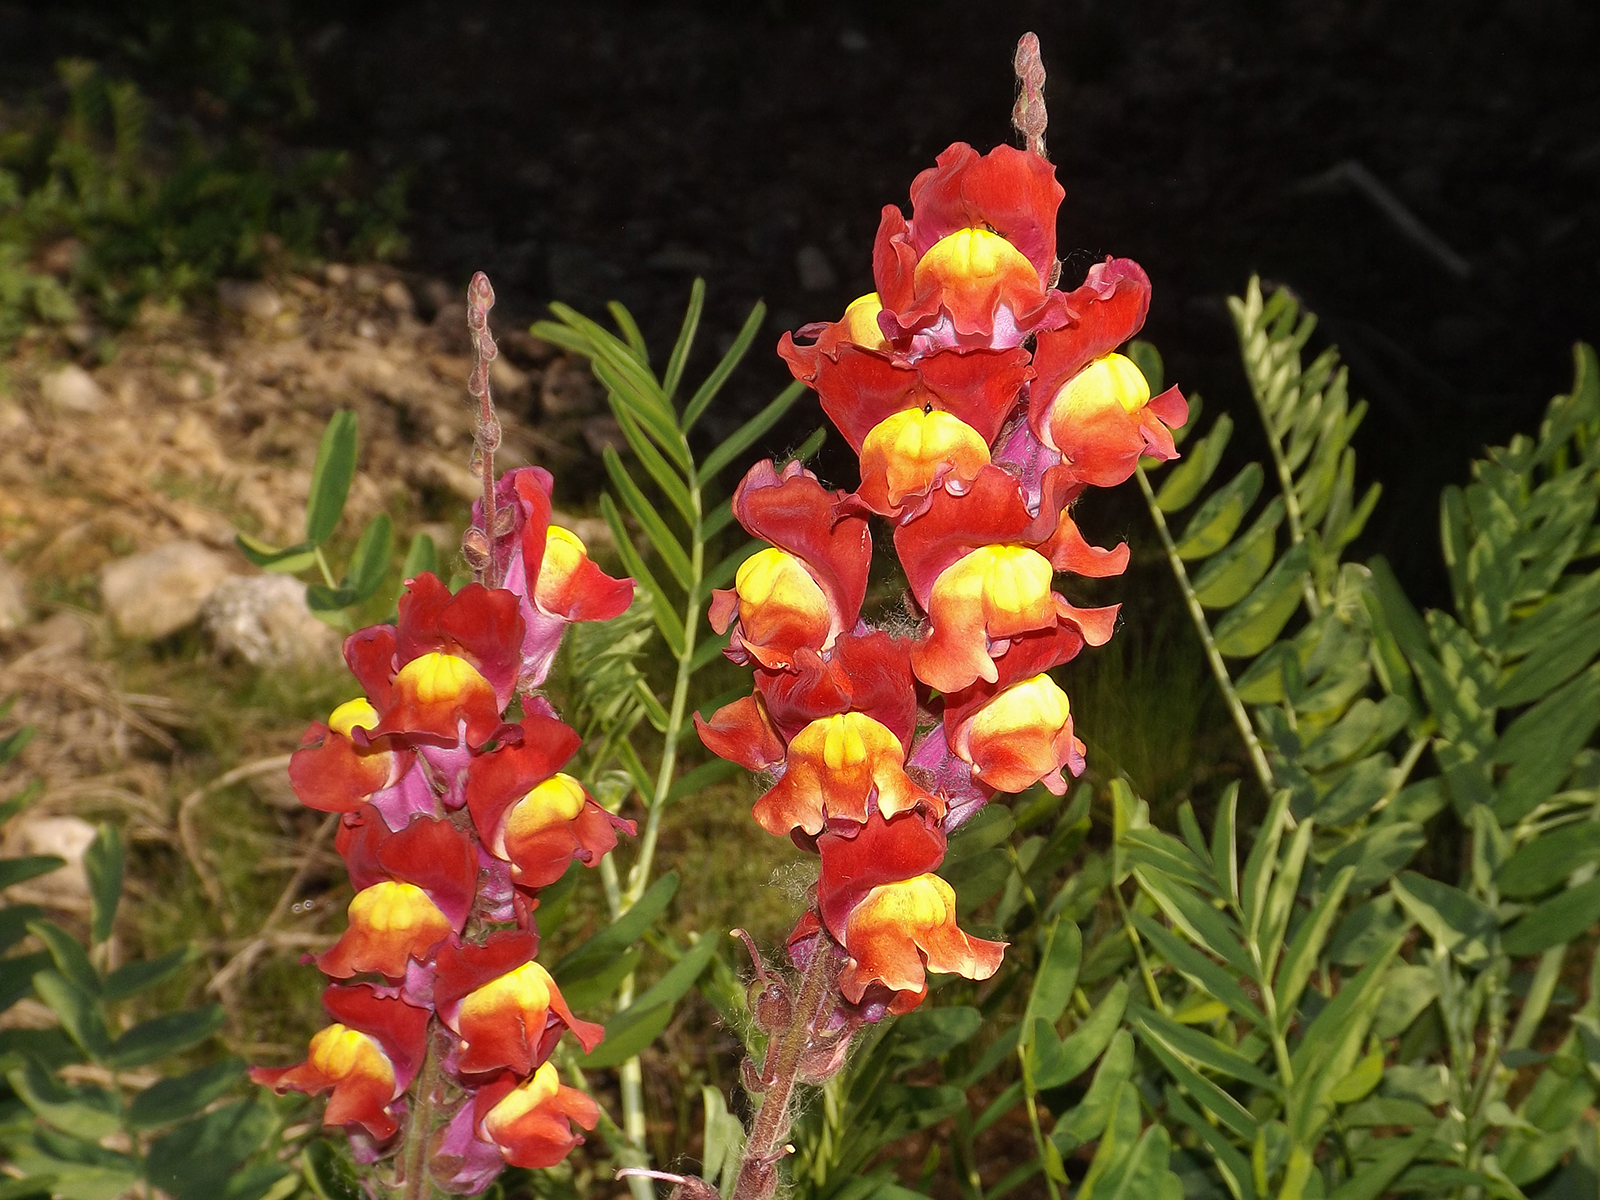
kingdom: Plantae
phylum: Tracheophyta
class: Magnoliopsida
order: Lamiales
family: Plantaginaceae
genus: Antirrhinum
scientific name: Antirrhinum majus
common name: Snapdragon
